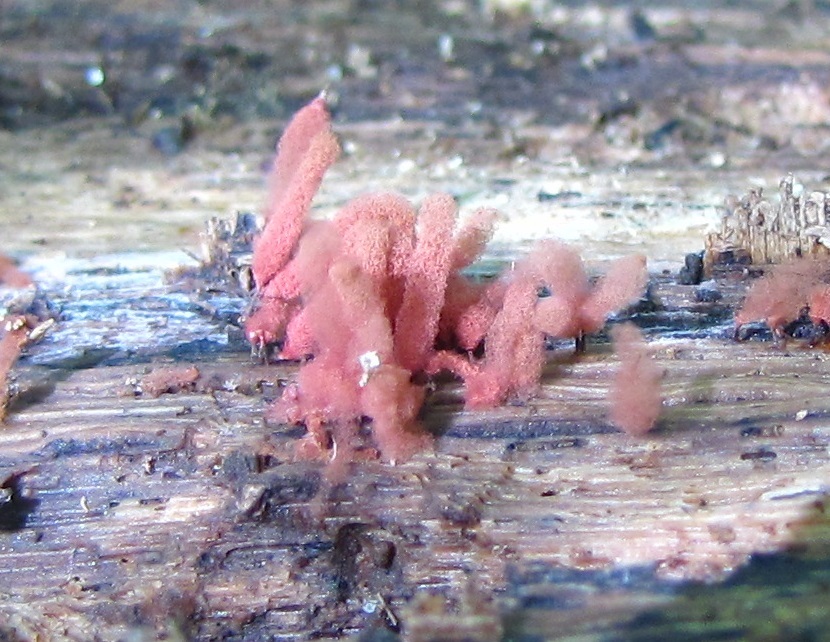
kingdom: Protozoa
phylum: Mycetozoa
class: Myxomycetes
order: Trichiales
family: Arcyriaceae
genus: Arcyria
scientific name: Arcyria denudata
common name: Carnival candy slime mold
